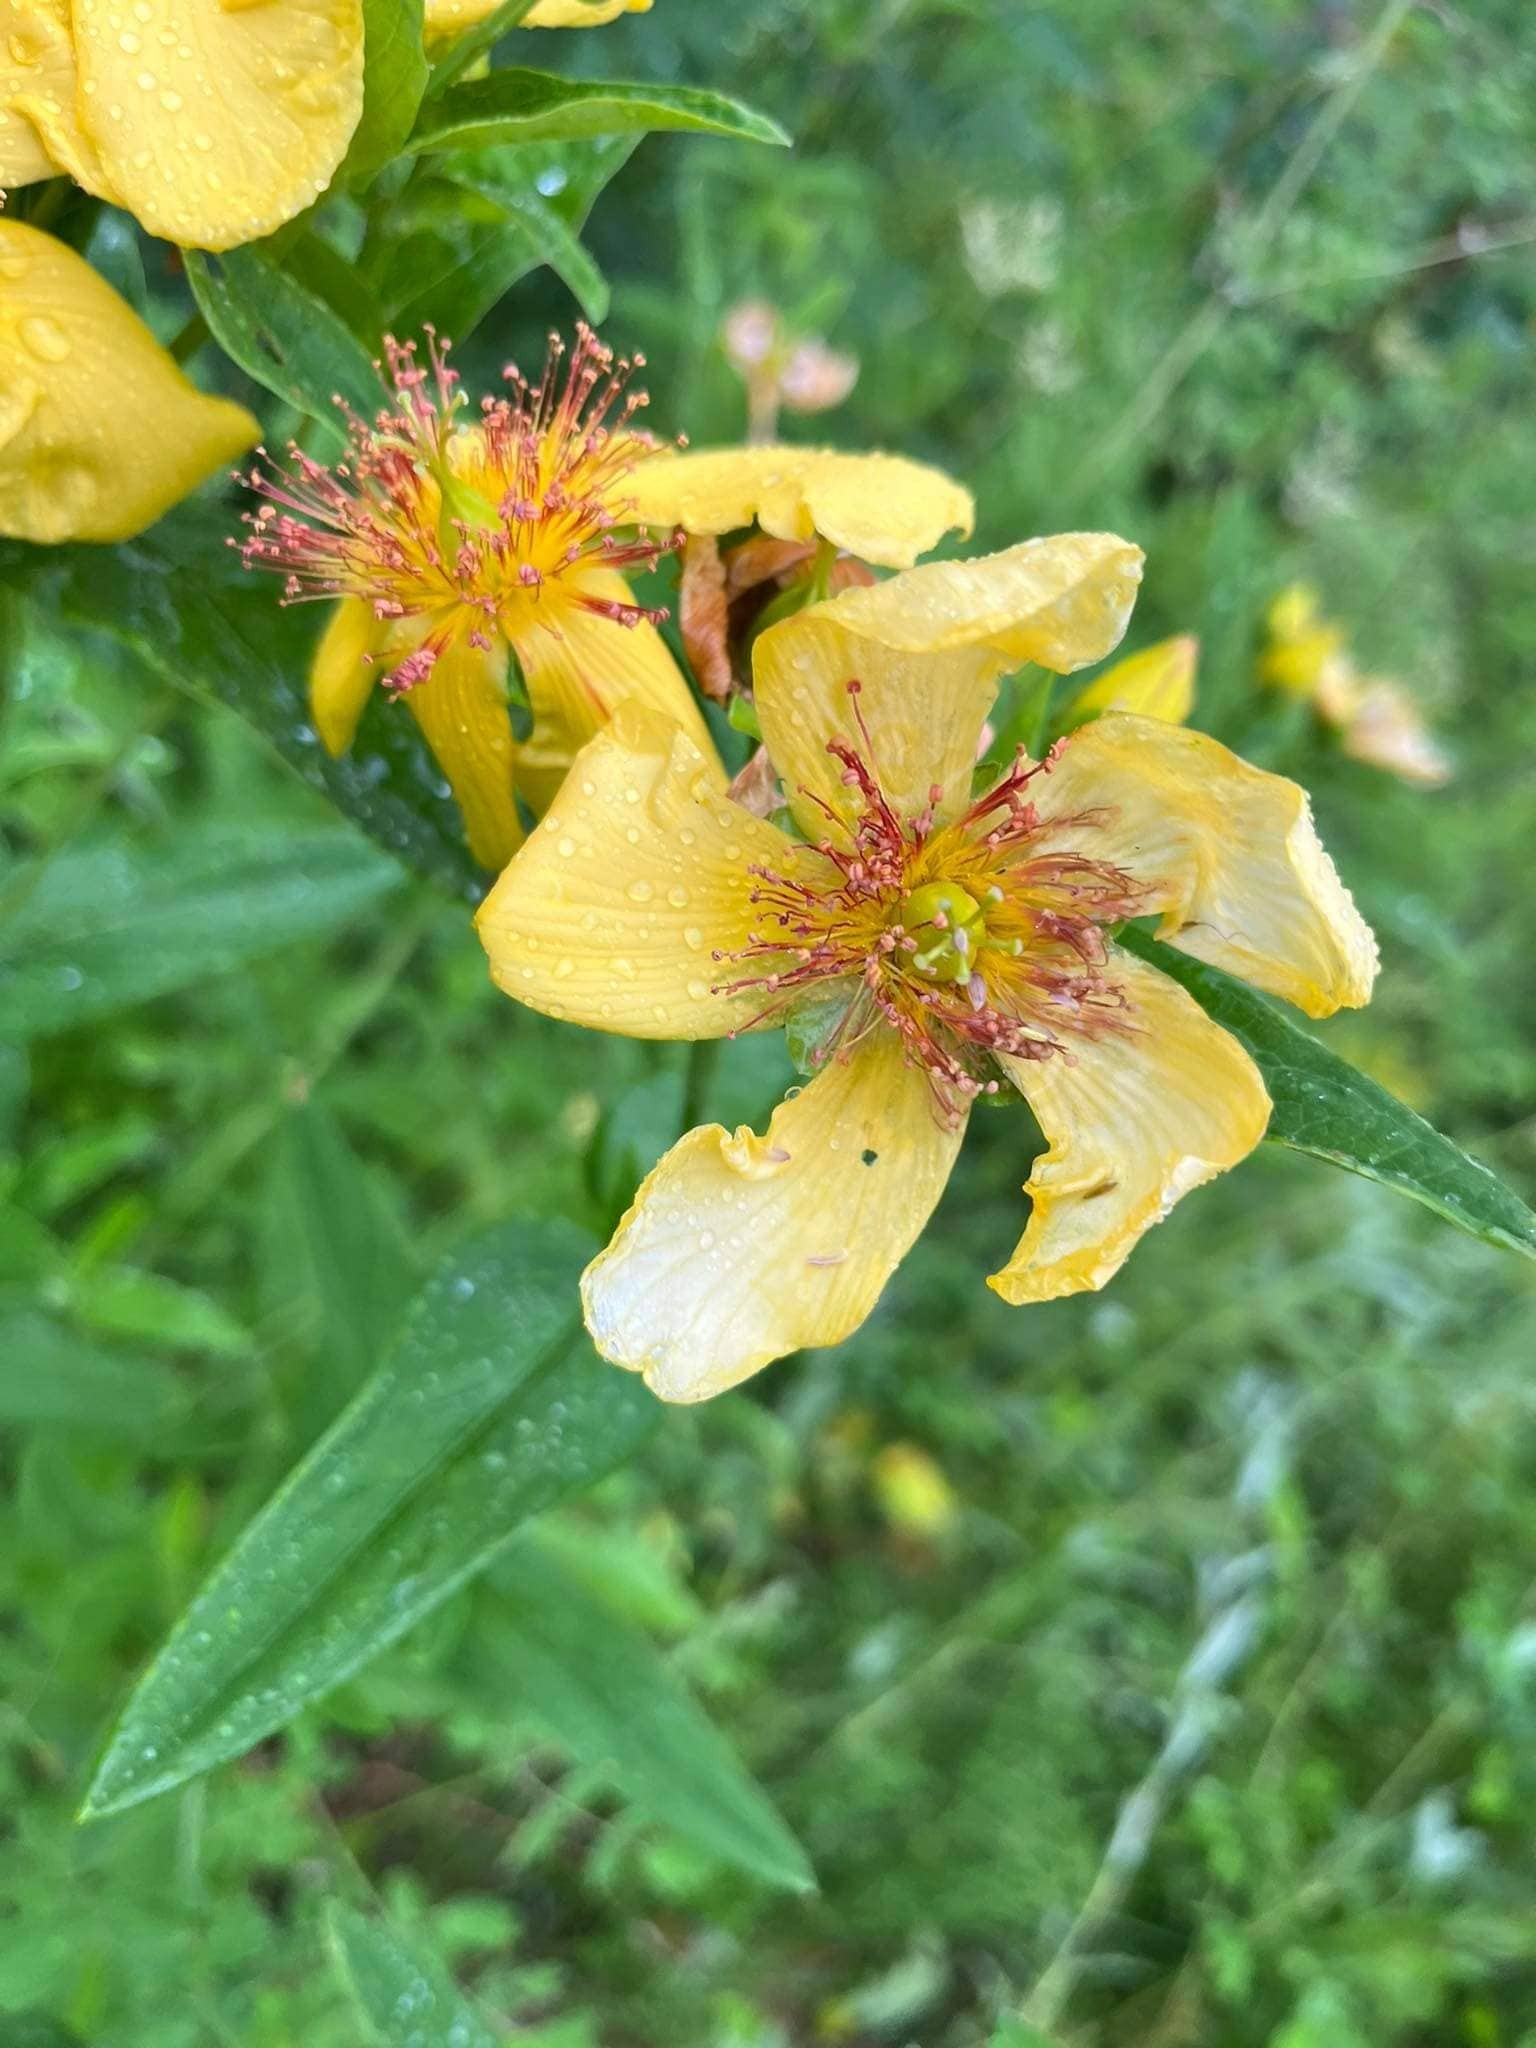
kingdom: Plantae
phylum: Tracheophyta
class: Magnoliopsida
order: Malpighiales
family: Hypericaceae
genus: Hypericum
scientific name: Hypericum ascyron
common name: Giant st. john's-wort
